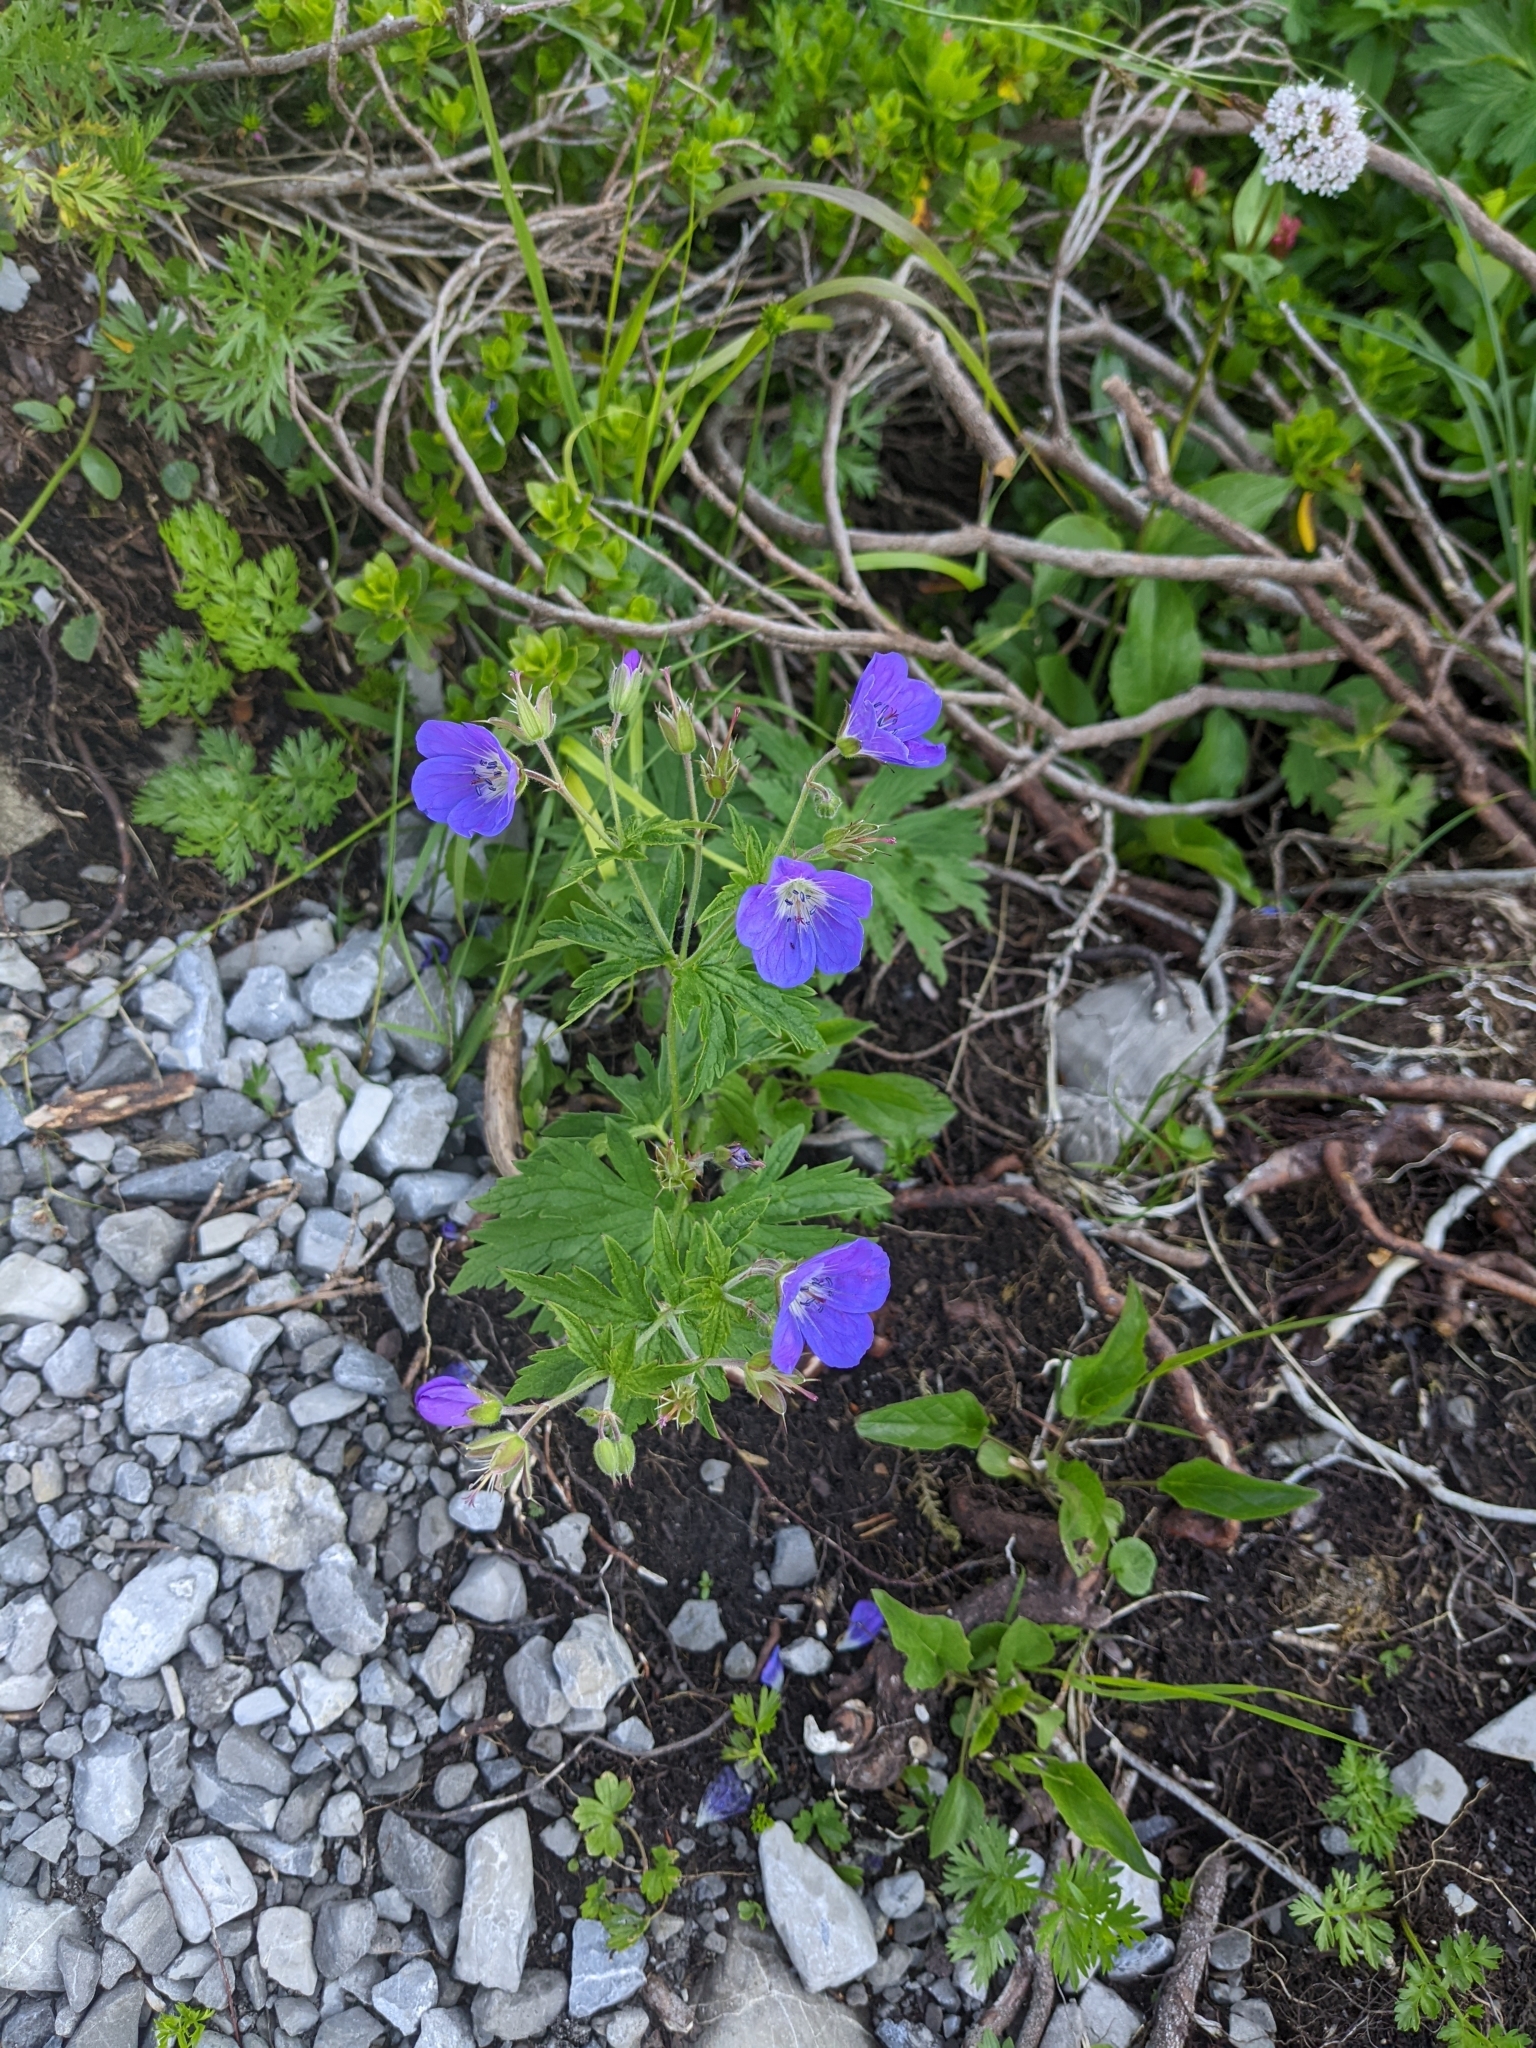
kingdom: Plantae
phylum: Tracheophyta
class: Magnoliopsida
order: Geraniales
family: Geraniaceae
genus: Geranium
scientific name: Geranium sylvaticum
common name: Wood crane's-bill
